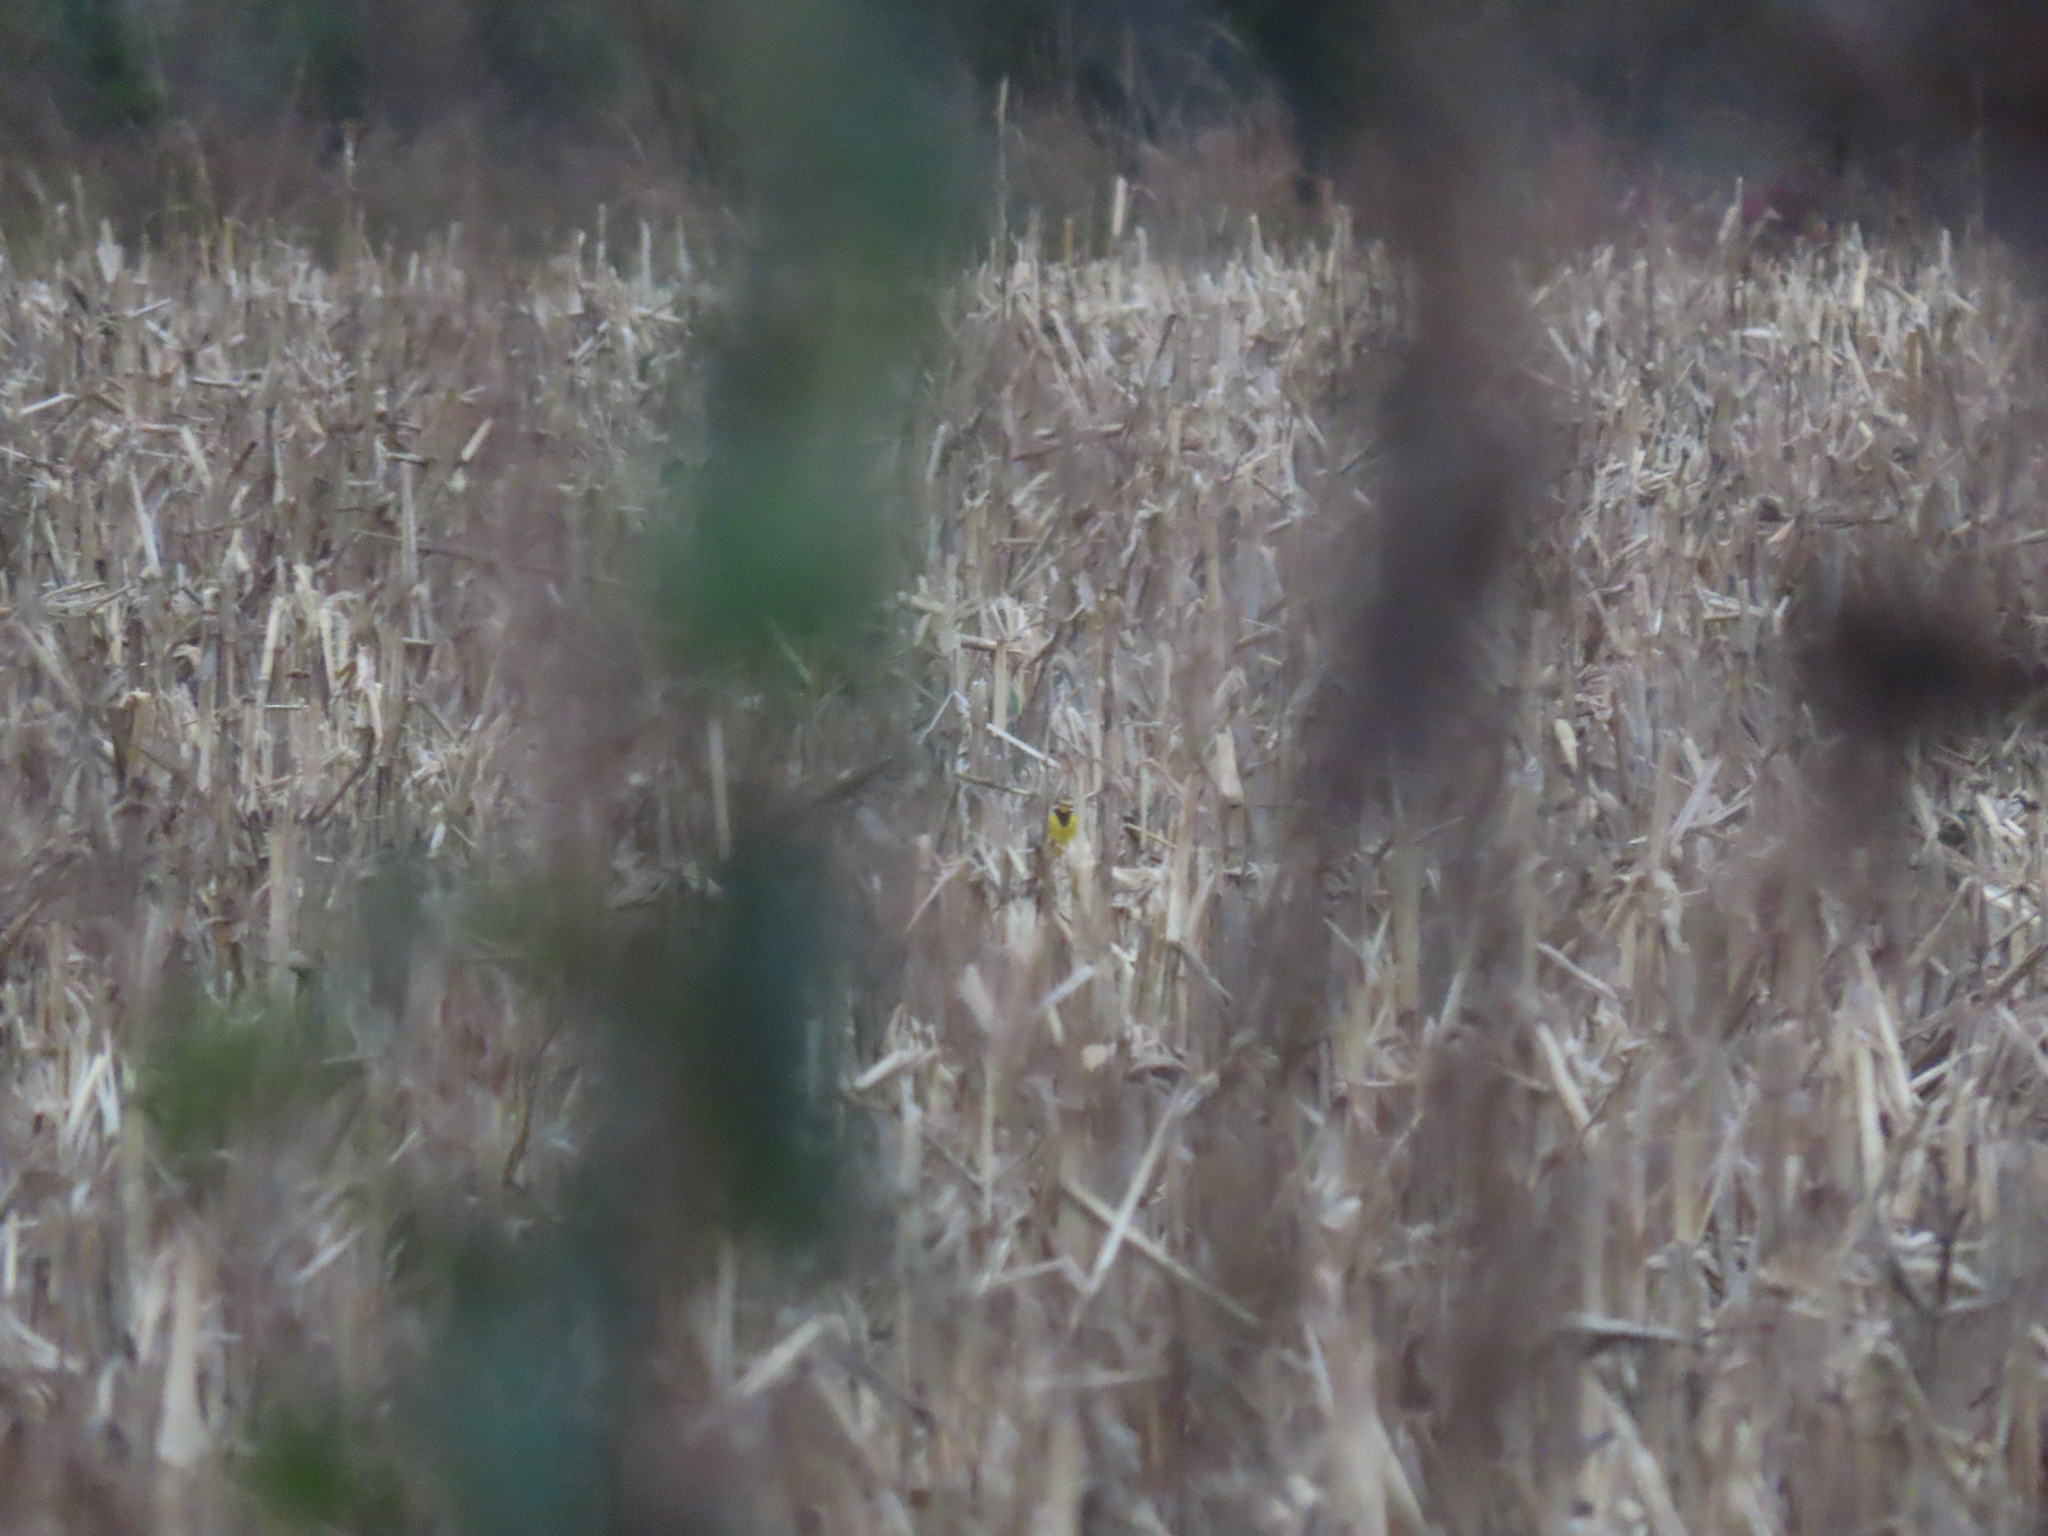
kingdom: Animalia
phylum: Chordata
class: Aves
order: Passeriformes
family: Icteridae
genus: Sturnella
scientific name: Sturnella magna
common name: Eastern meadowlark
